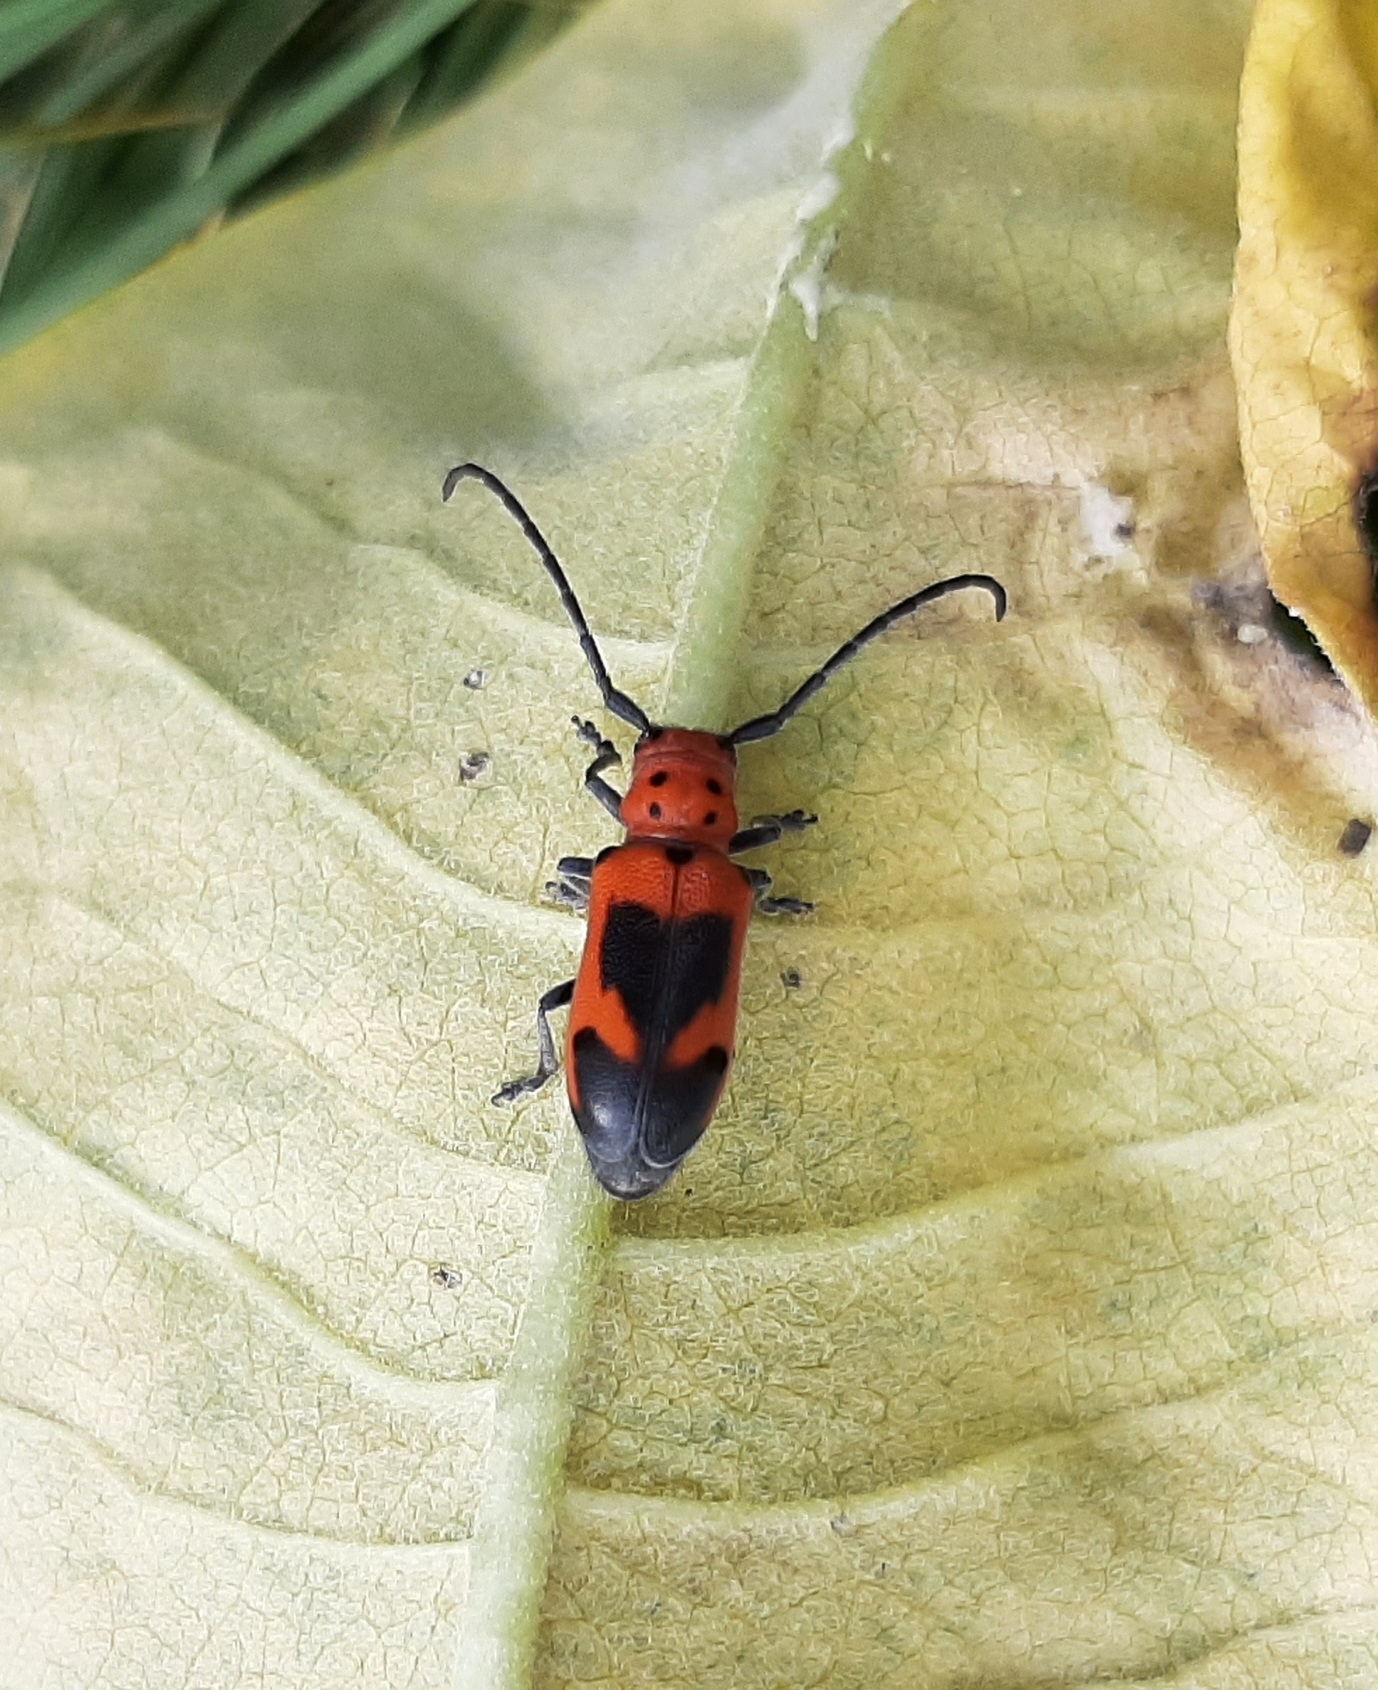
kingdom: Animalia
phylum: Arthropoda
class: Insecta
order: Coleoptera
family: Cerambycidae
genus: Tetraopes
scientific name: Tetraopes melanurus
